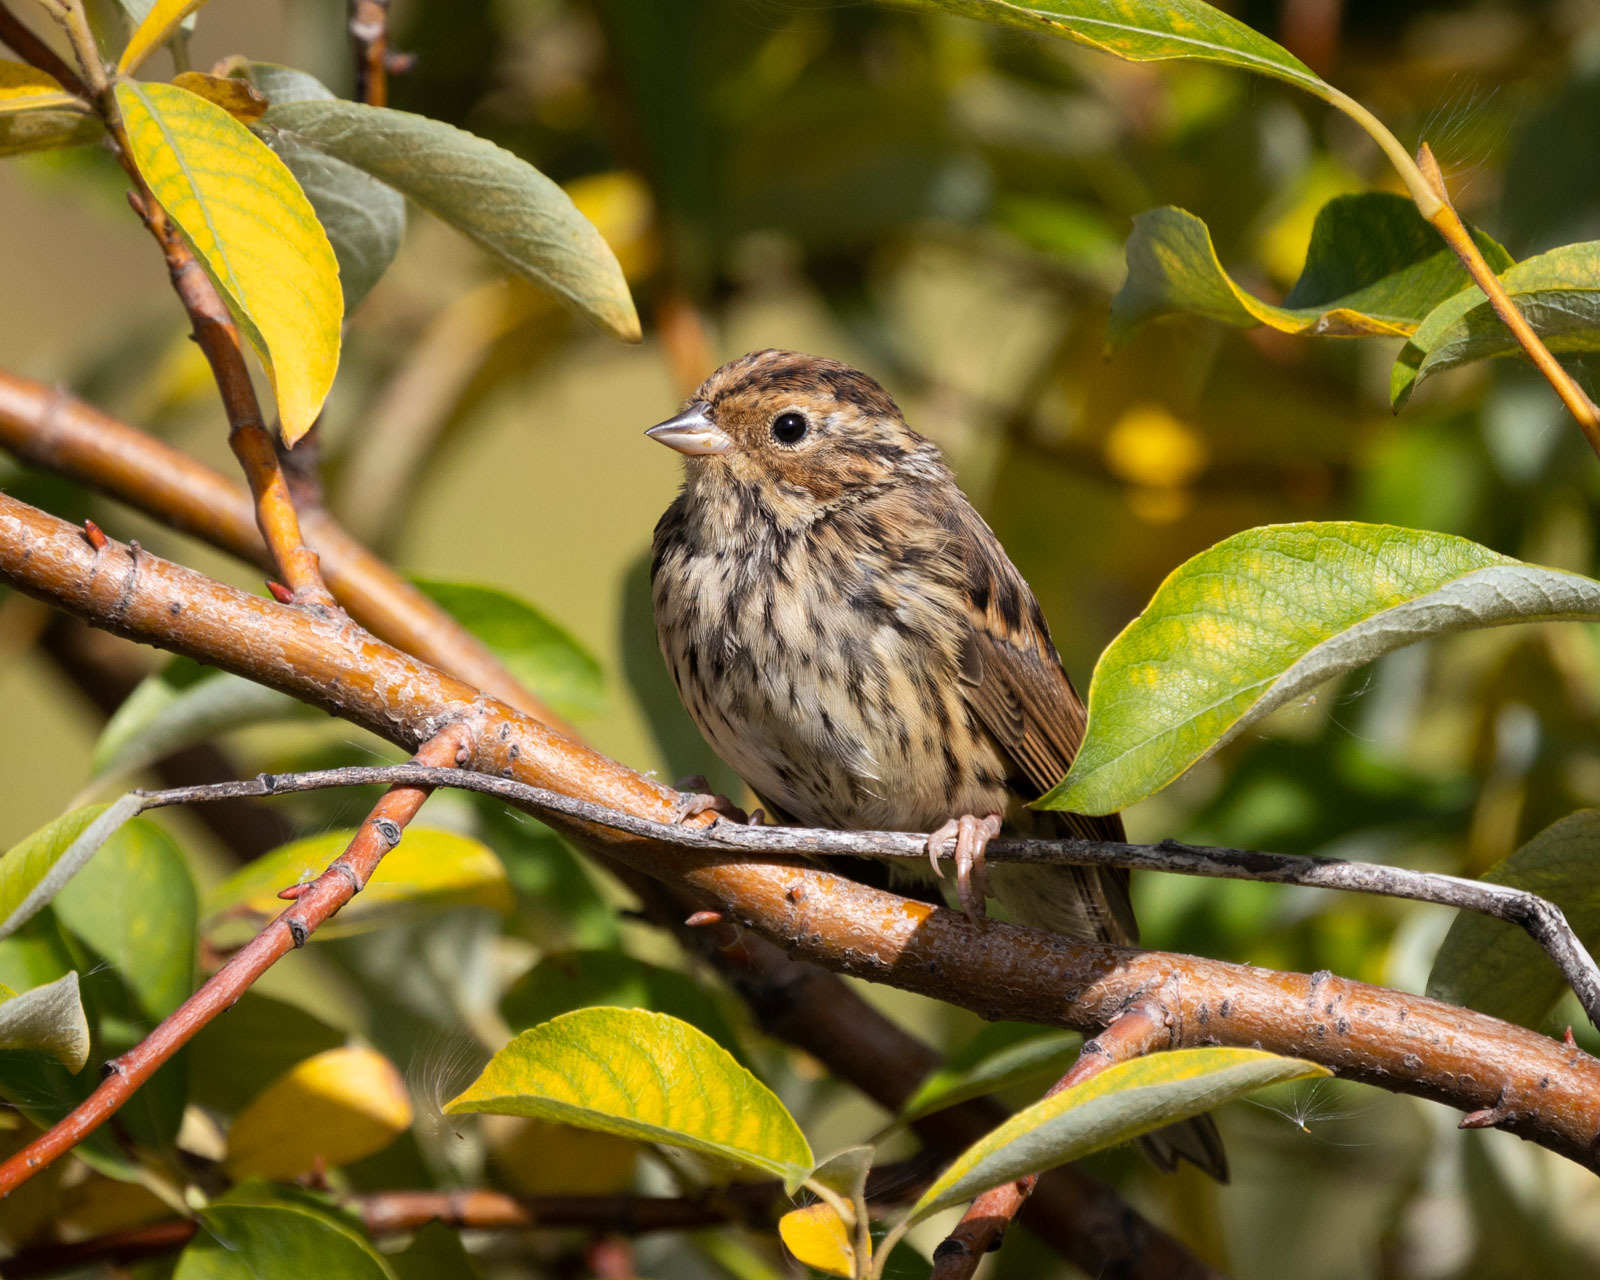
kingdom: Animalia
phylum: Chordata
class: Aves
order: Passeriformes
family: Emberizidae
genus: Emberiza
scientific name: Emberiza pusilla
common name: Little bunting
